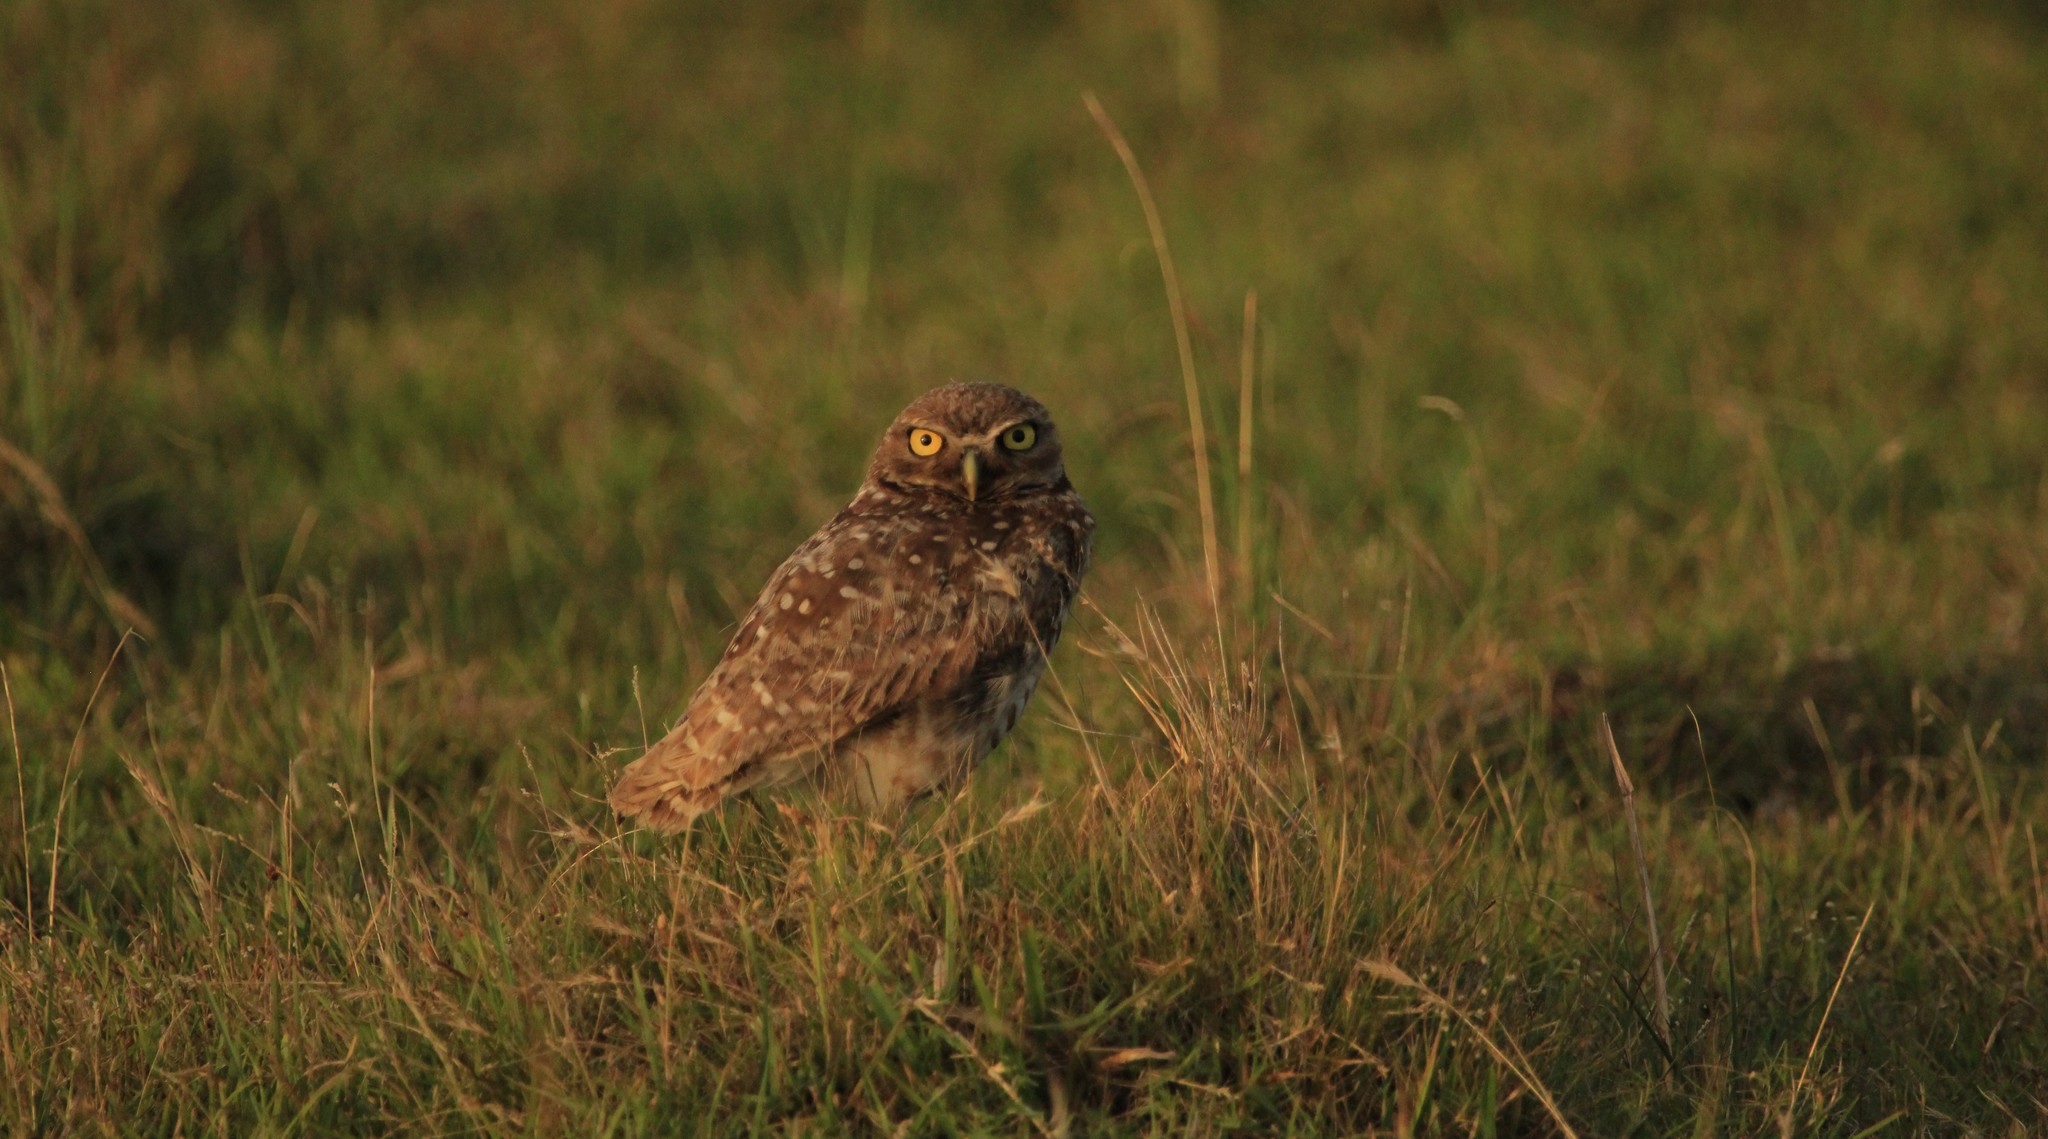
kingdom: Animalia
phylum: Chordata
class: Aves
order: Strigiformes
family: Strigidae
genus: Athene
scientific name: Athene cunicularia
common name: Burrowing owl
